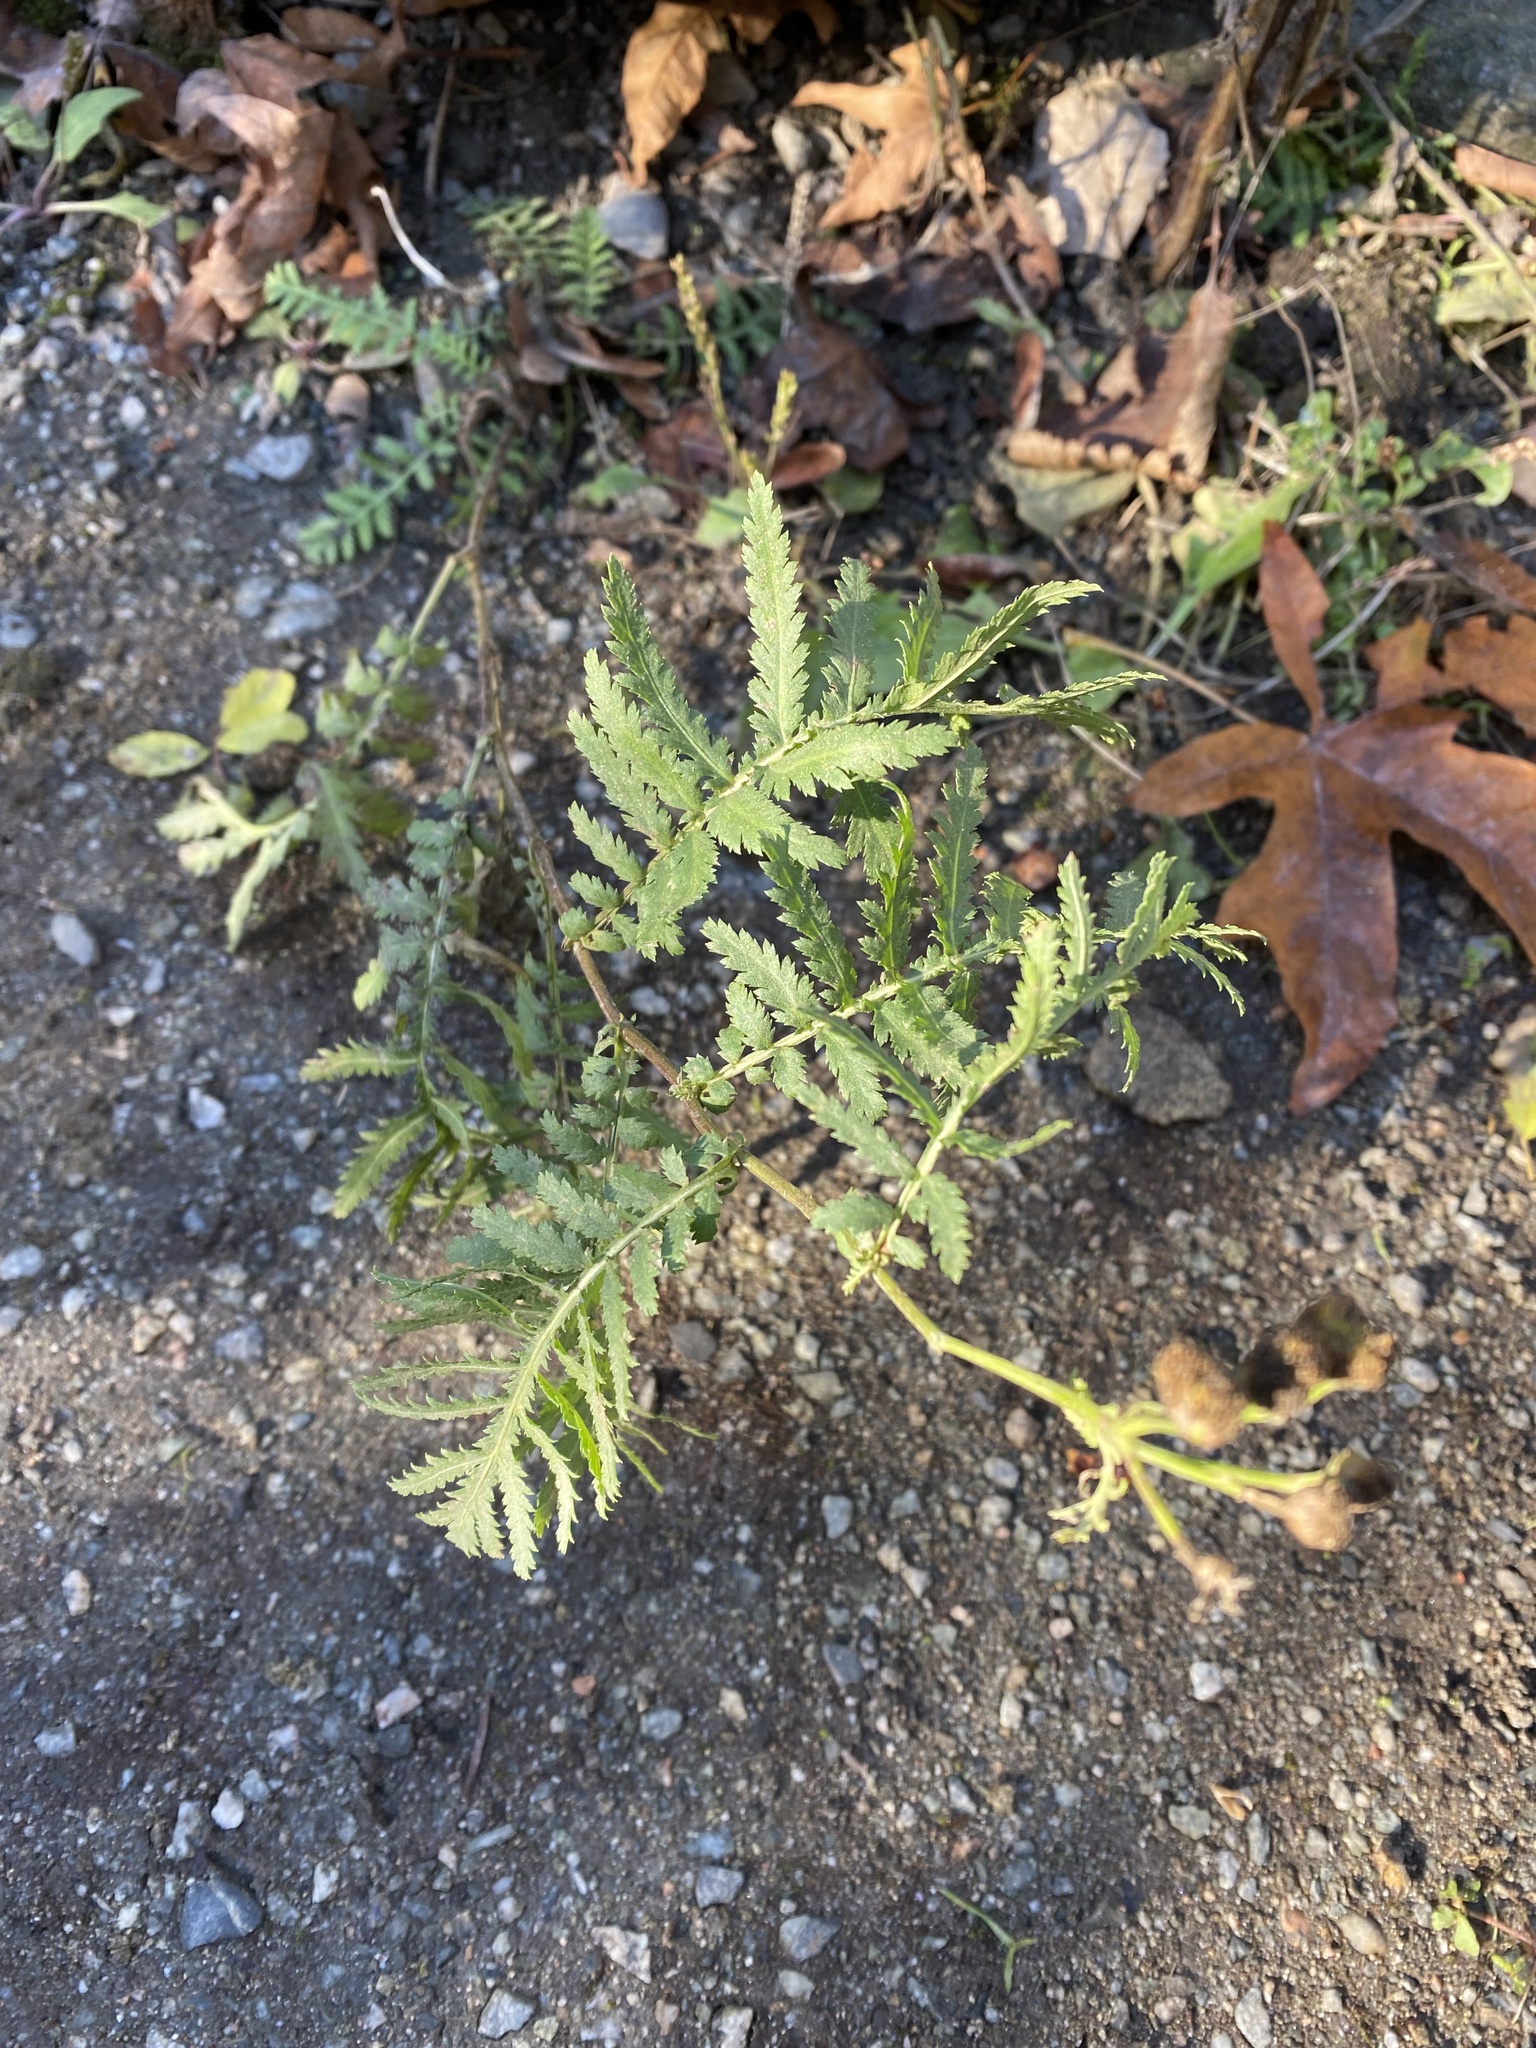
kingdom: Plantae
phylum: Tracheophyta
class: Magnoliopsida
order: Asterales
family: Asteraceae
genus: Tanacetum
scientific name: Tanacetum vulgare
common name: Common tansy
